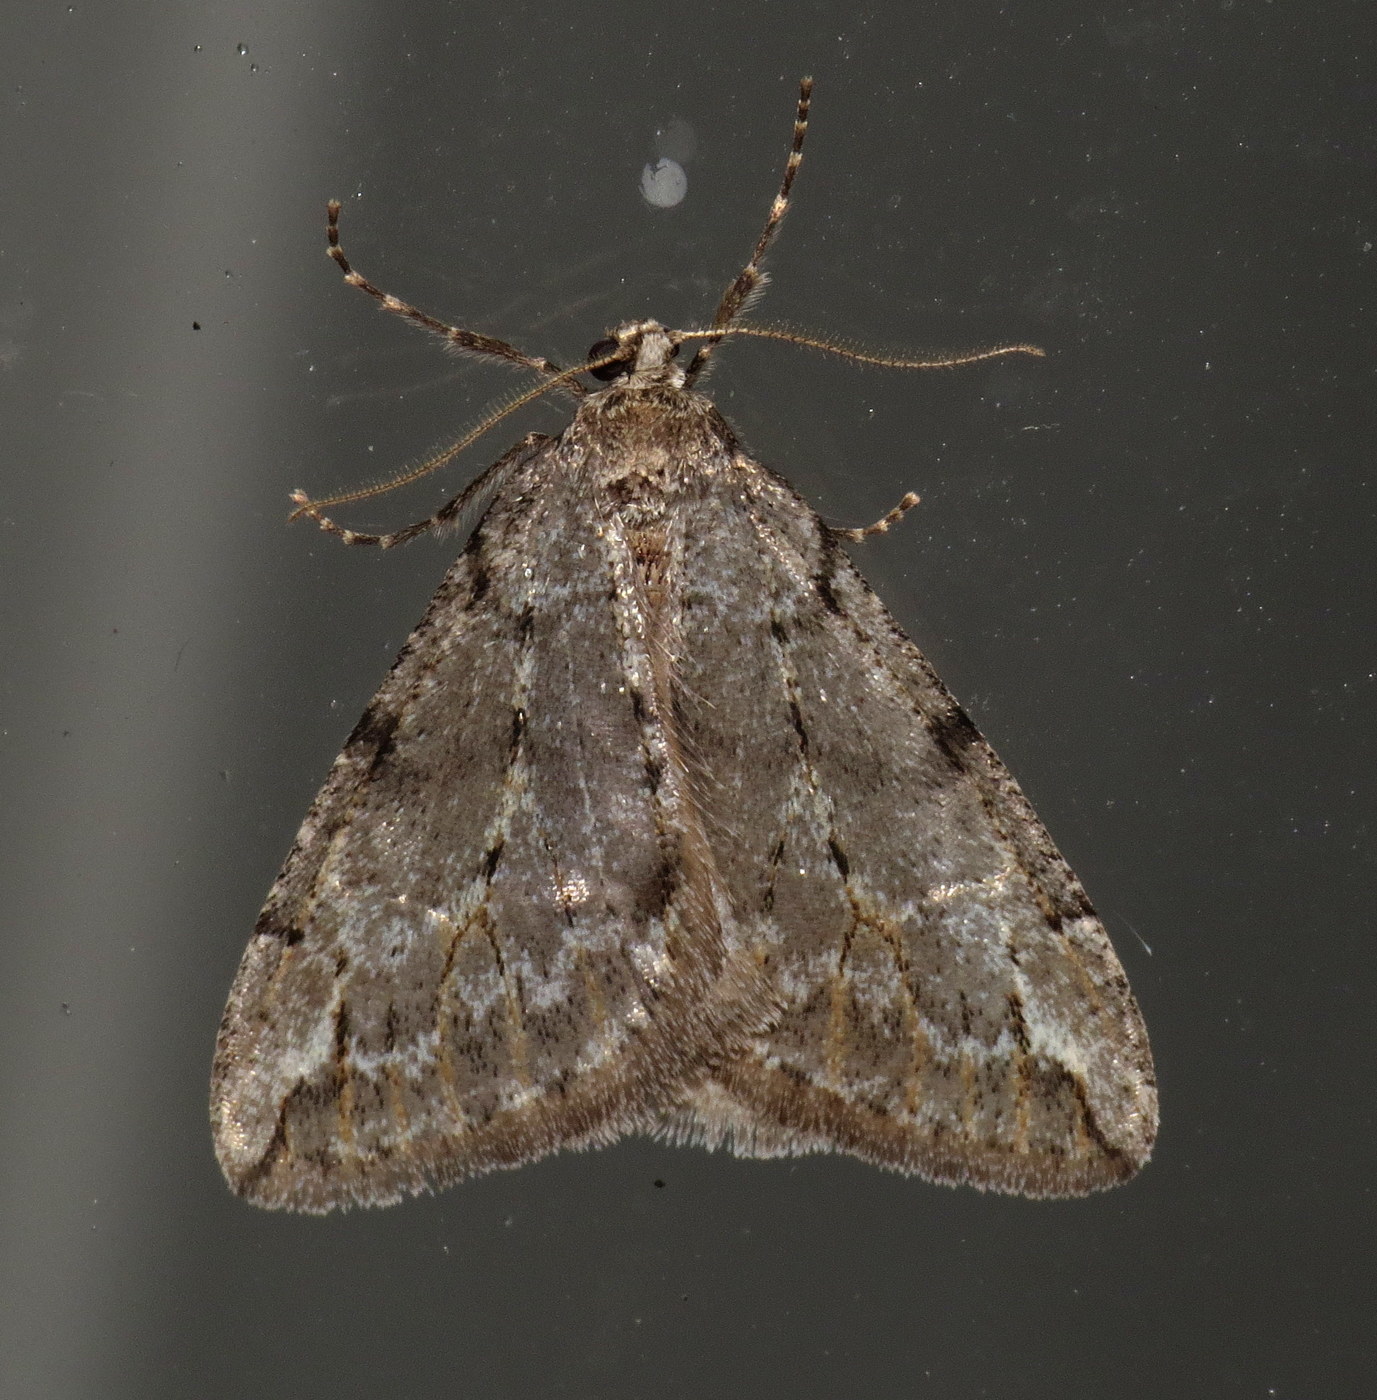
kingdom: Animalia
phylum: Arthropoda
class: Insecta
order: Lepidoptera
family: Geometridae
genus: Paleacrita
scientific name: Paleacrita vernata
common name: Spring cankerworm
